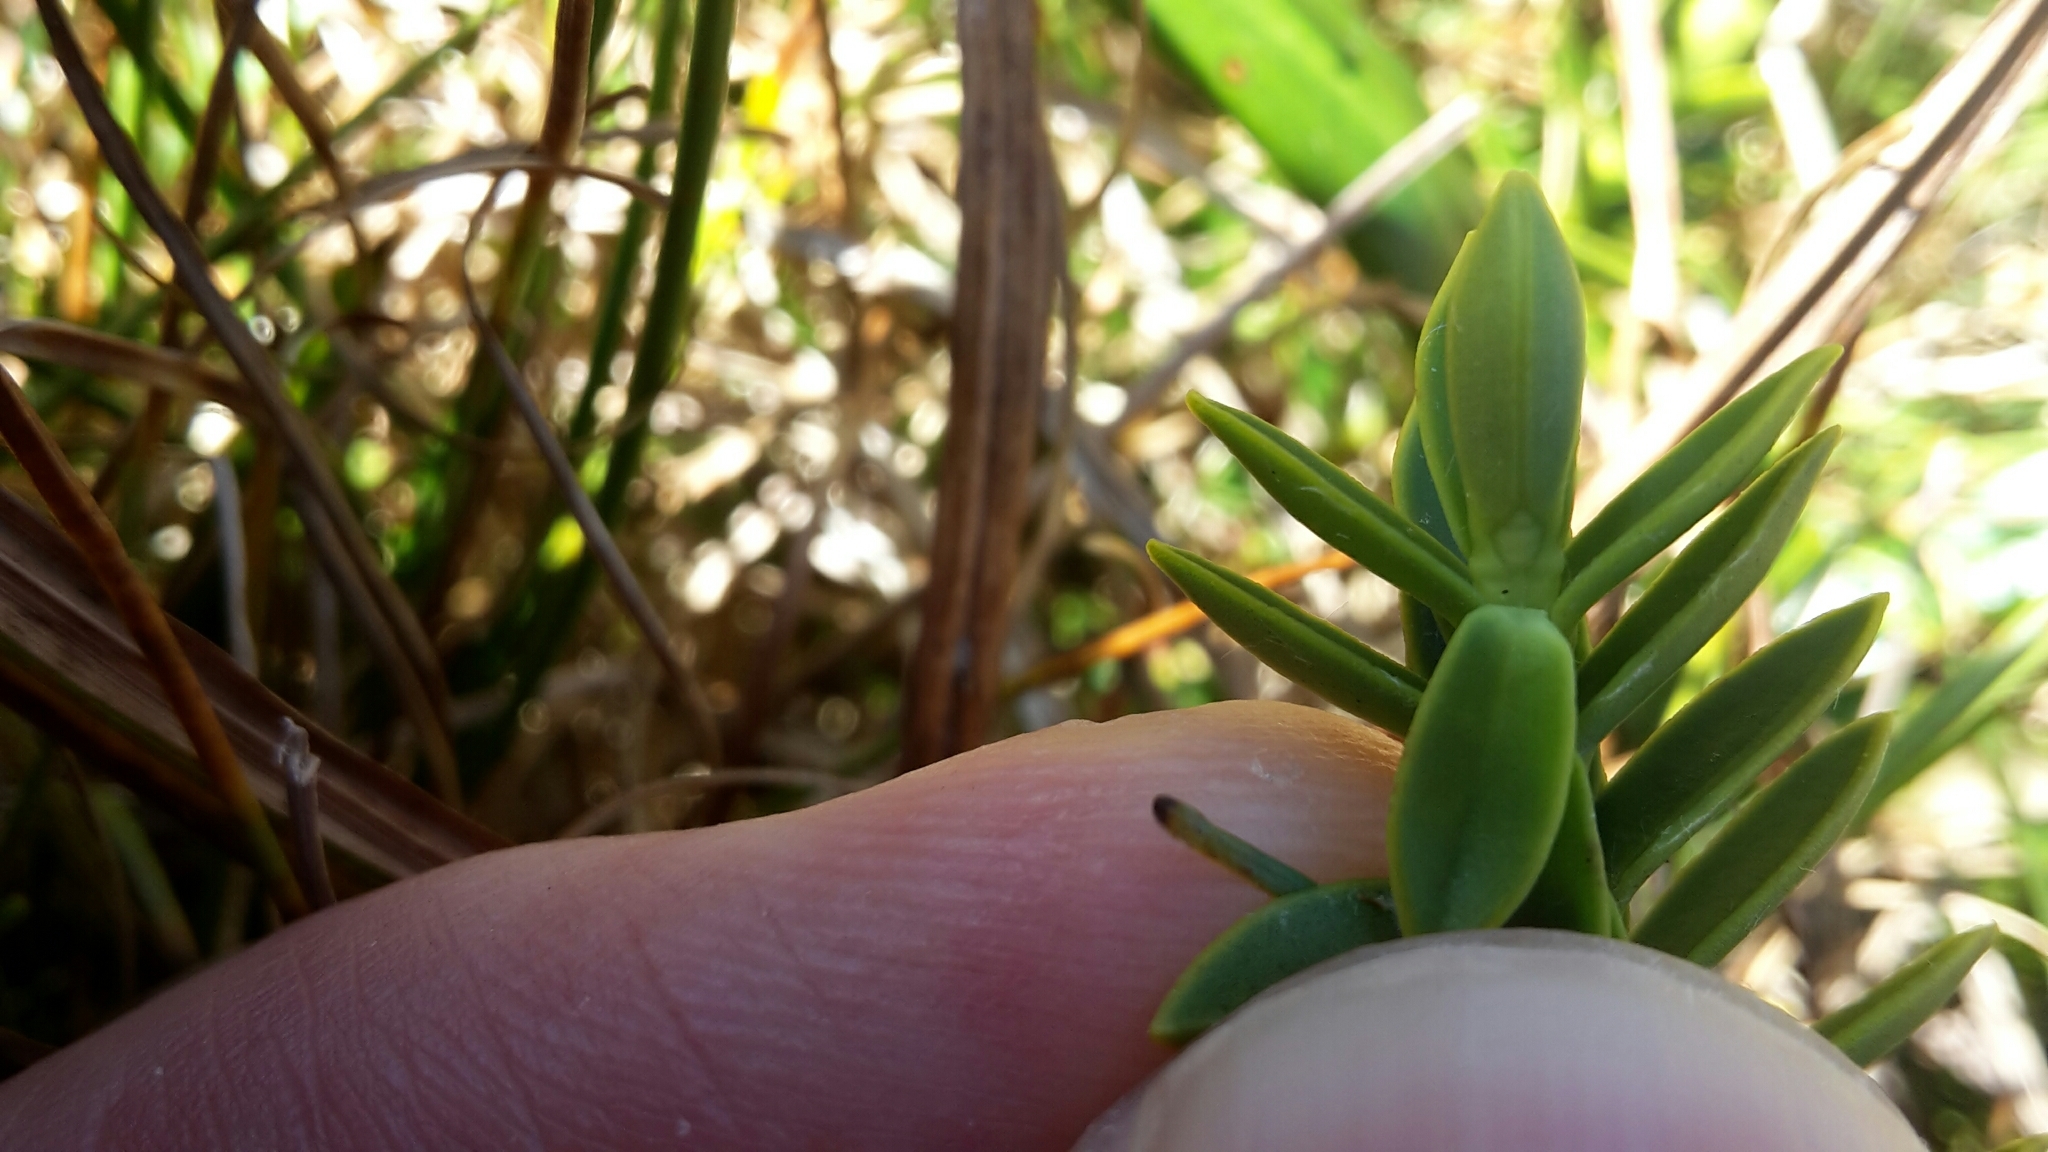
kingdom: Plantae
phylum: Tracheophyta
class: Magnoliopsida
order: Lamiales
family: Plantaginaceae
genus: Veronica
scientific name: Veronica odora
